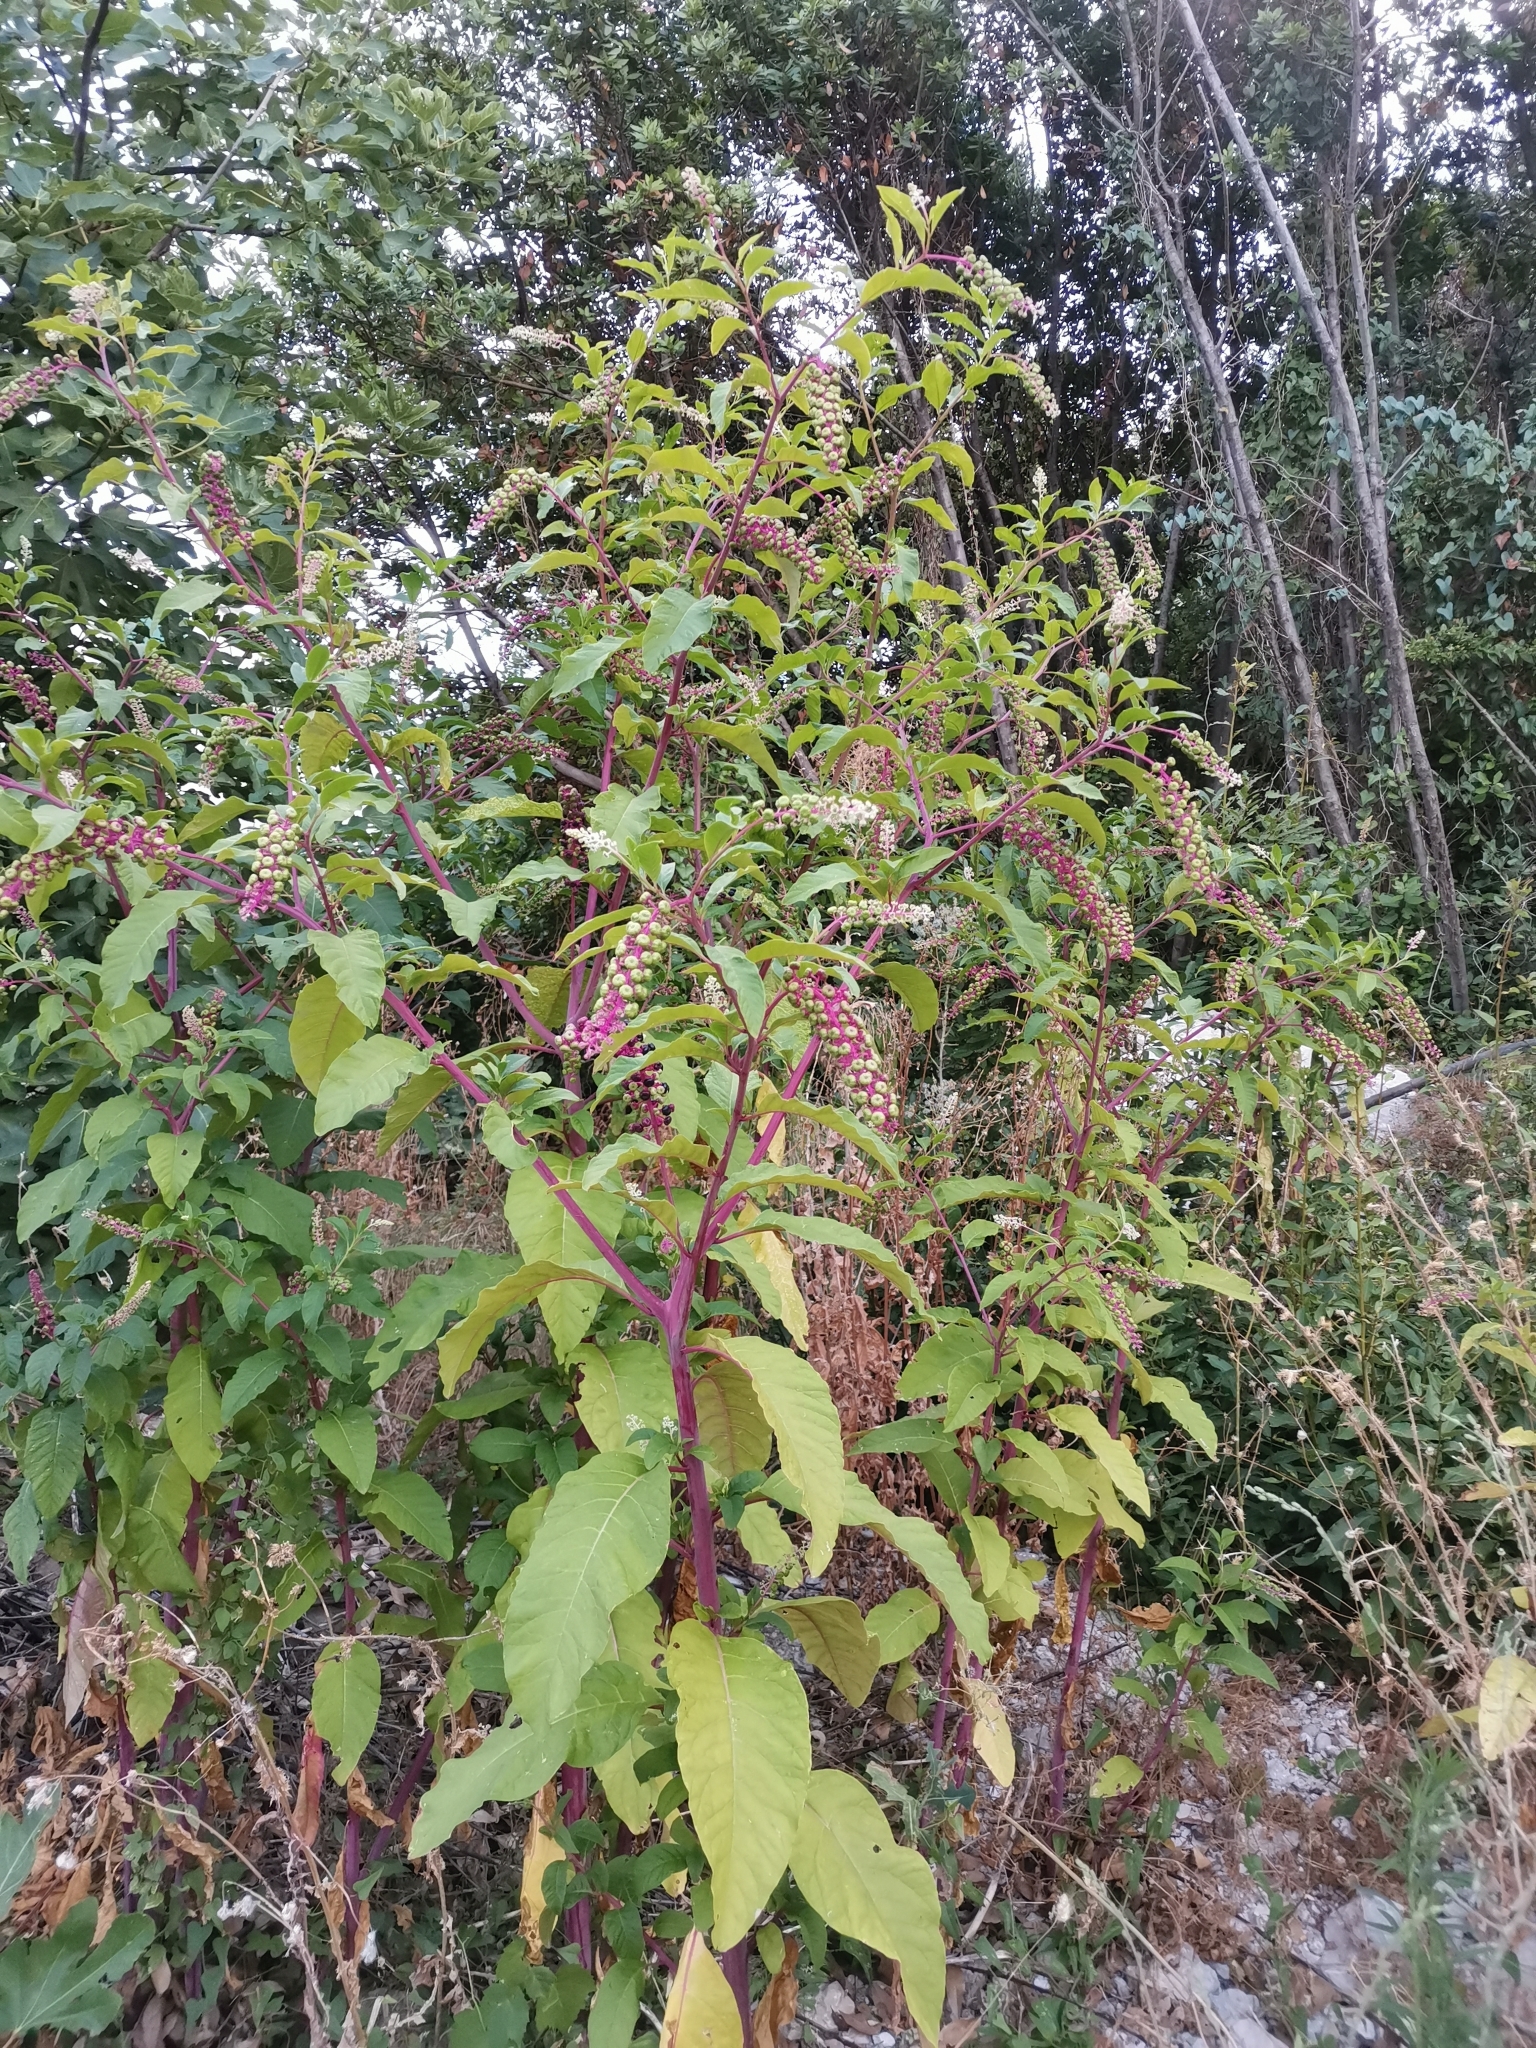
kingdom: Plantae
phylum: Tracheophyta
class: Magnoliopsida
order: Caryophyllales
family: Phytolaccaceae
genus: Phytolacca
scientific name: Phytolacca americana
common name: American pokeweed
